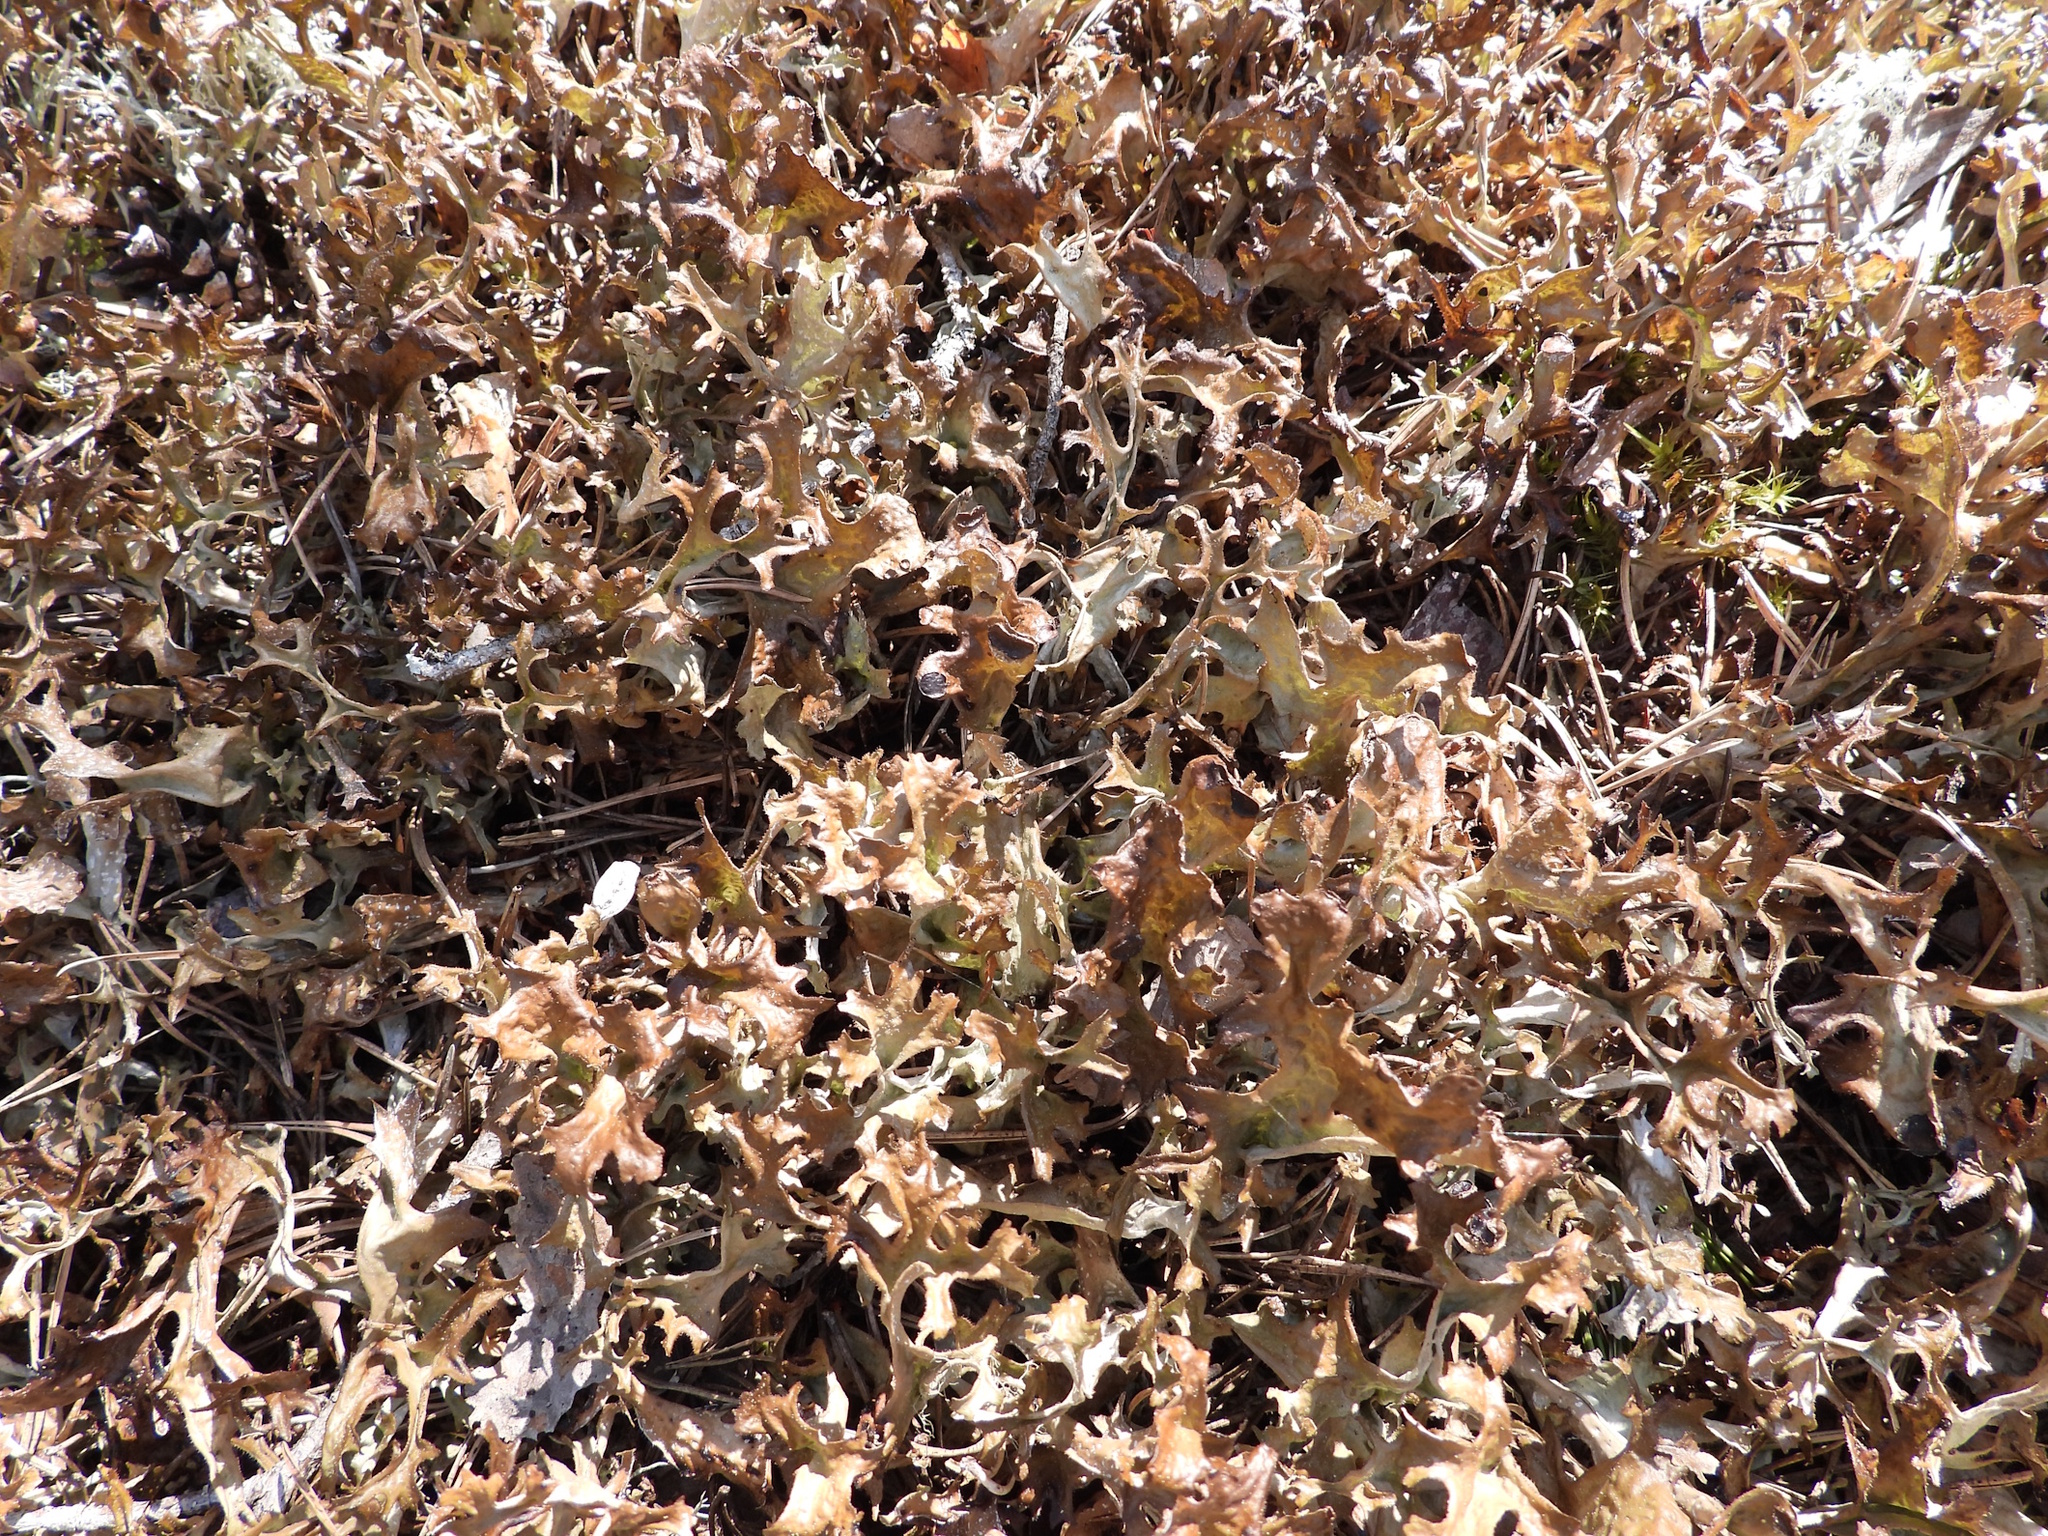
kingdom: Fungi
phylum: Ascomycota
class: Lecanoromycetes
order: Lecanorales
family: Parmeliaceae
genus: Cetraria
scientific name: Cetraria islandica
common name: Iceland lichen
